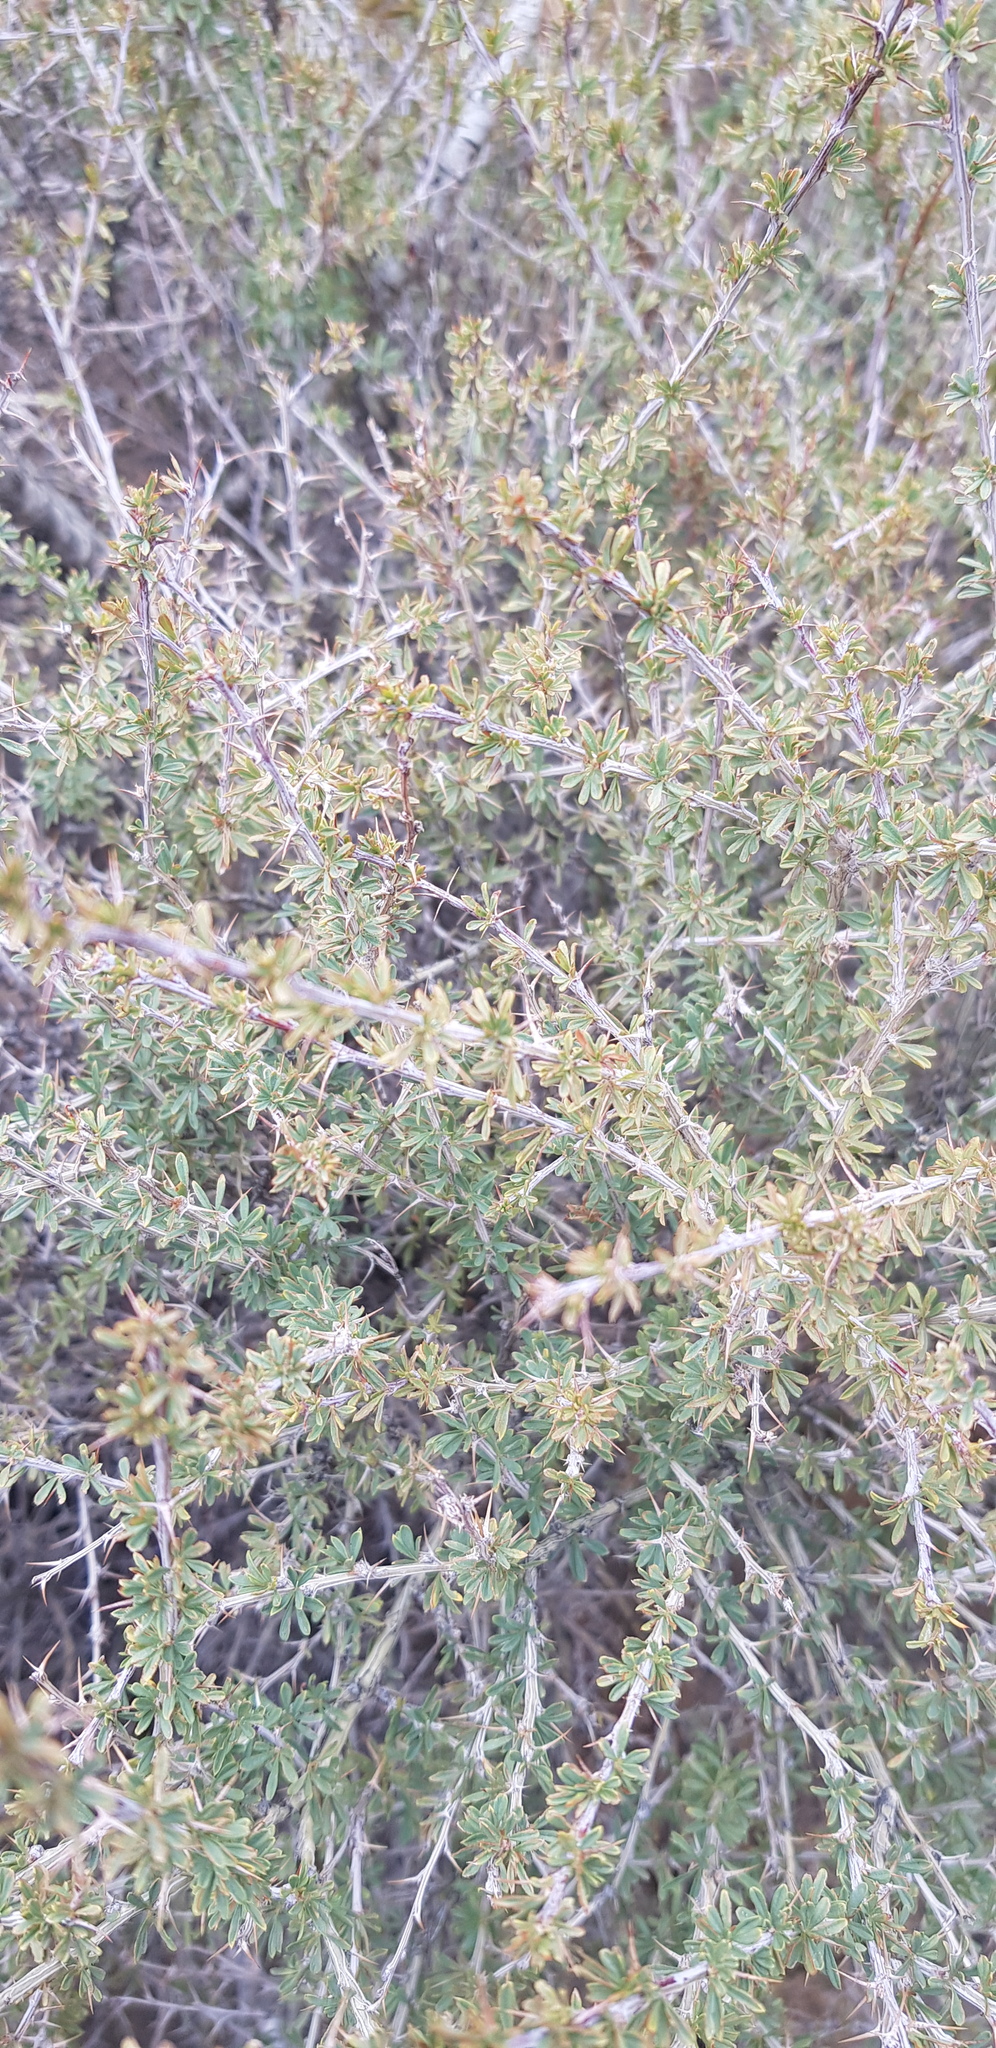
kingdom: Plantae
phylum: Tracheophyta
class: Magnoliopsida
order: Fabales
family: Fabaceae
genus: Caragana
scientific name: Caragana leucophloea
